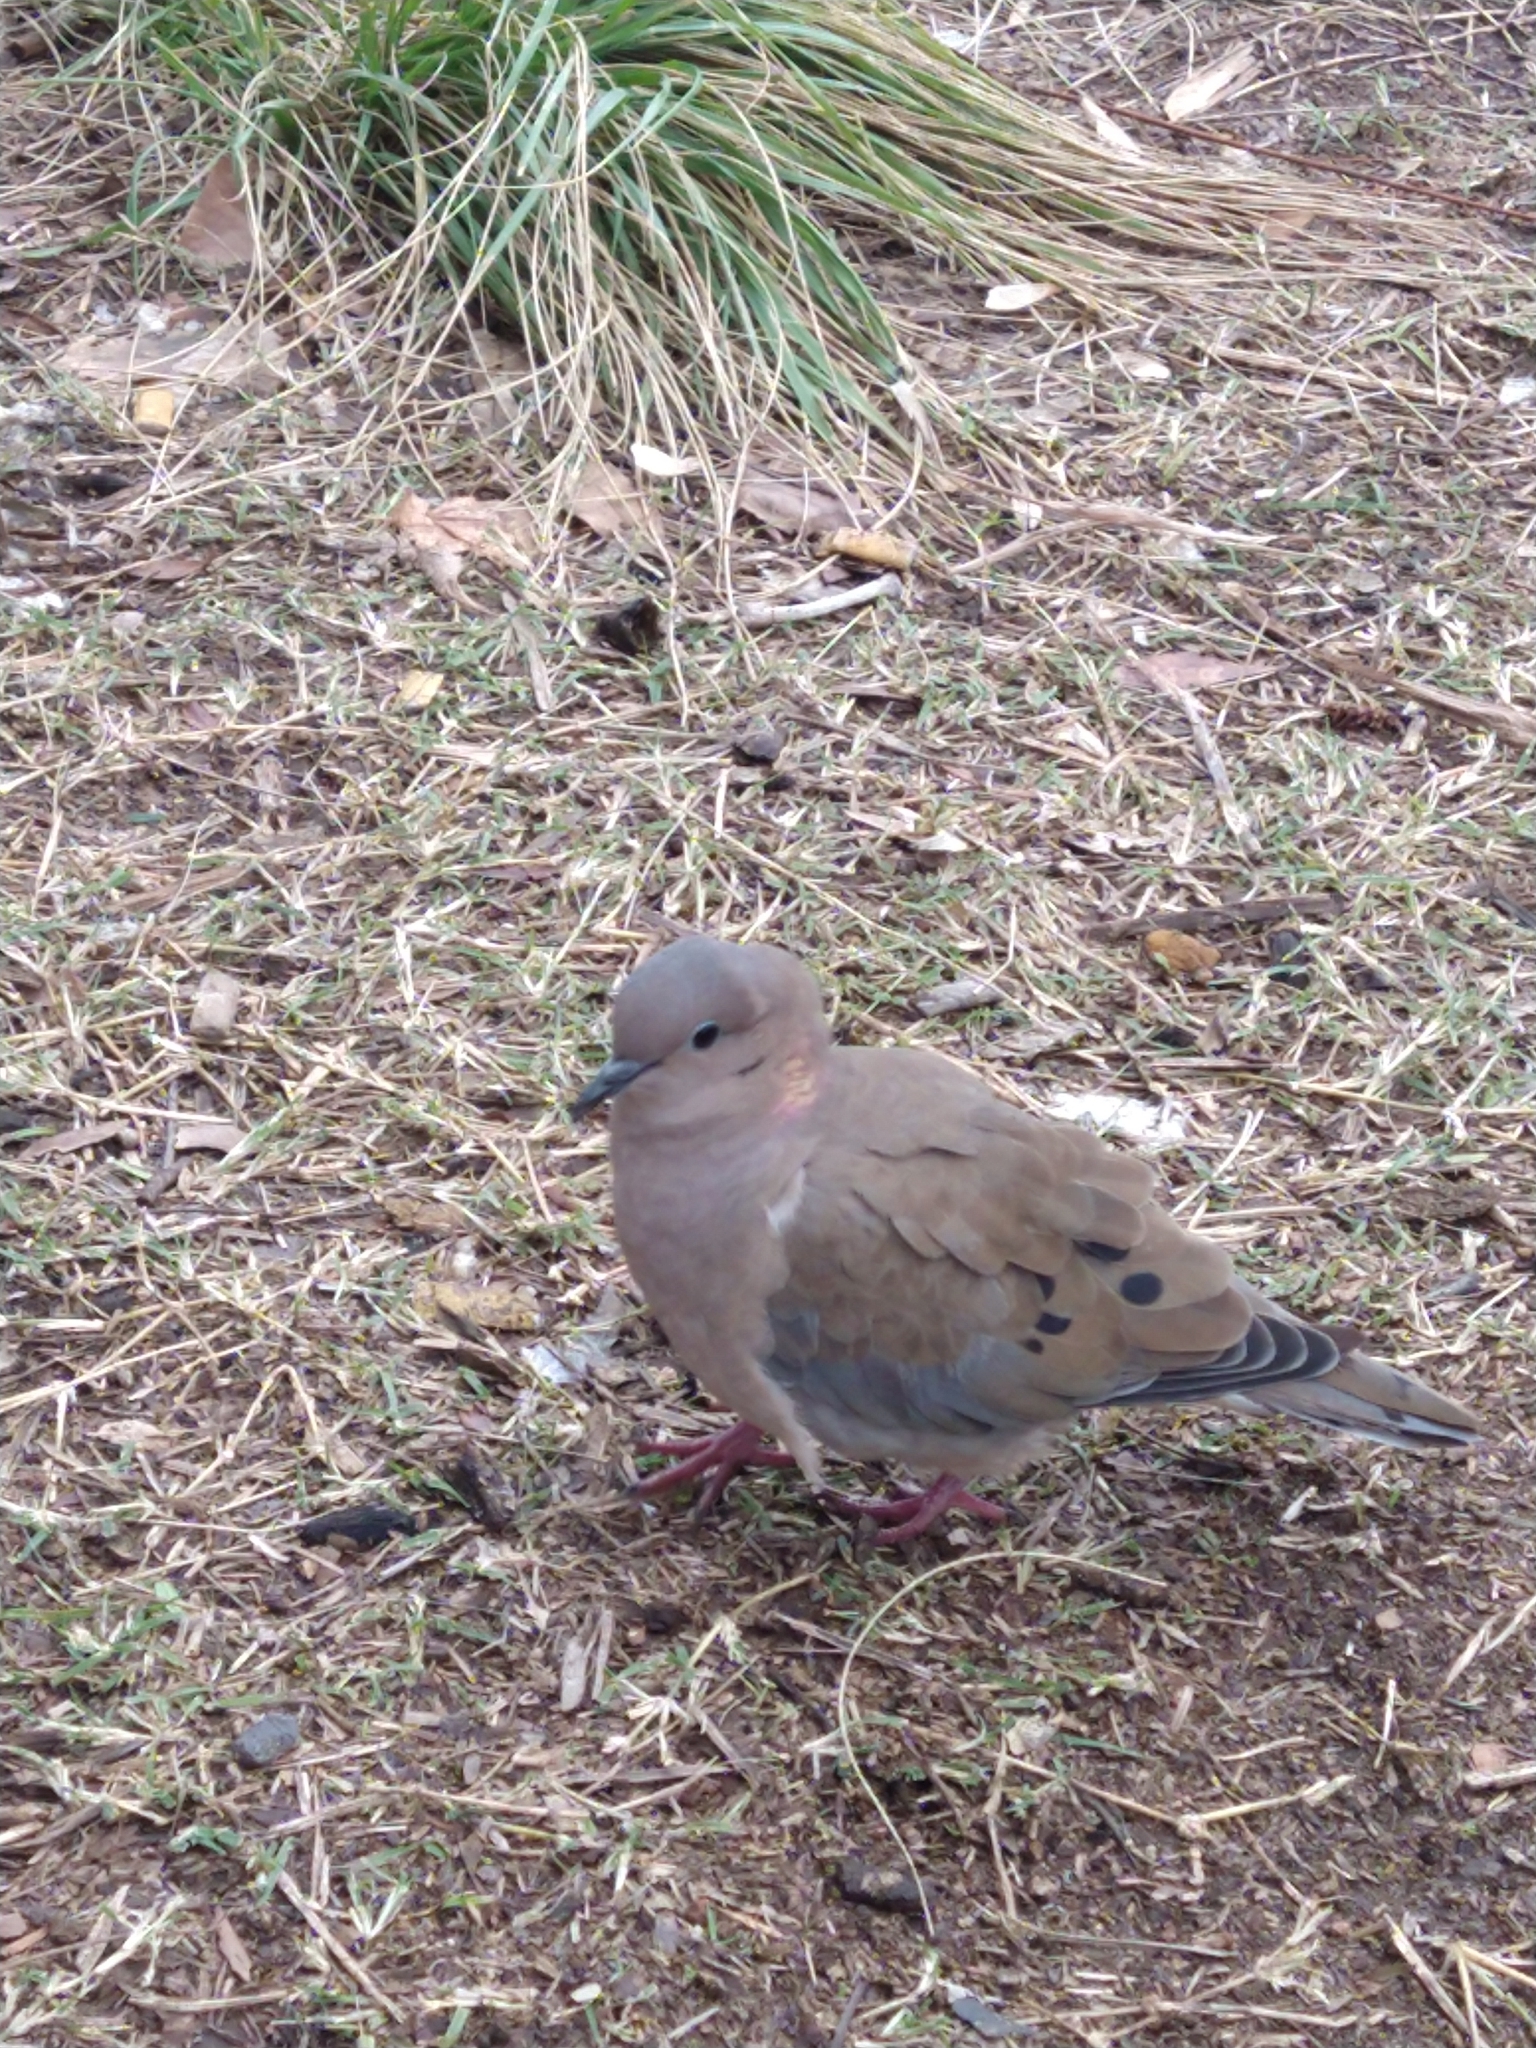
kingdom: Animalia
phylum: Chordata
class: Aves
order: Columbiformes
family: Columbidae
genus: Zenaida
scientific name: Zenaida auriculata
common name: Eared dove
